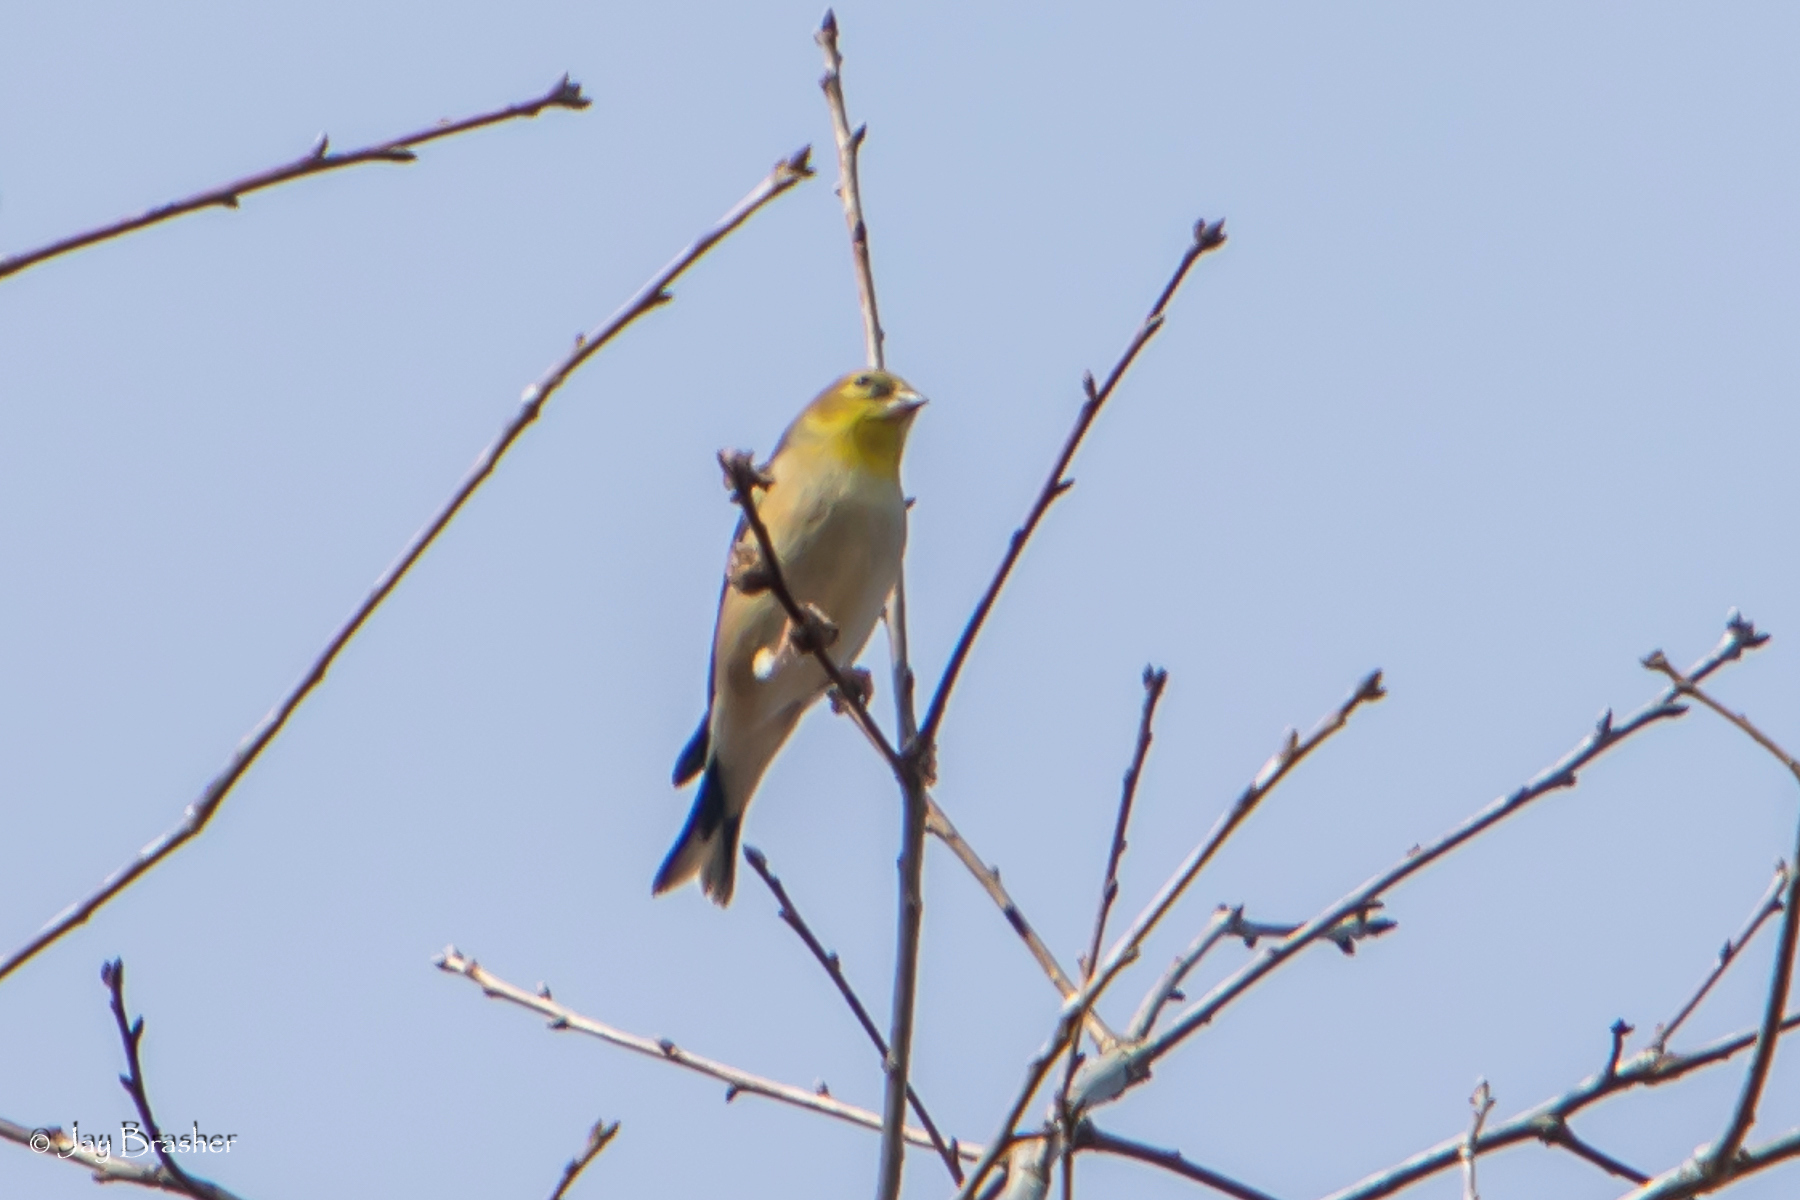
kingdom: Animalia
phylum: Chordata
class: Aves
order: Passeriformes
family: Fringillidae
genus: Spinus
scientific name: Spinus tristis
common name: American goldfinch
